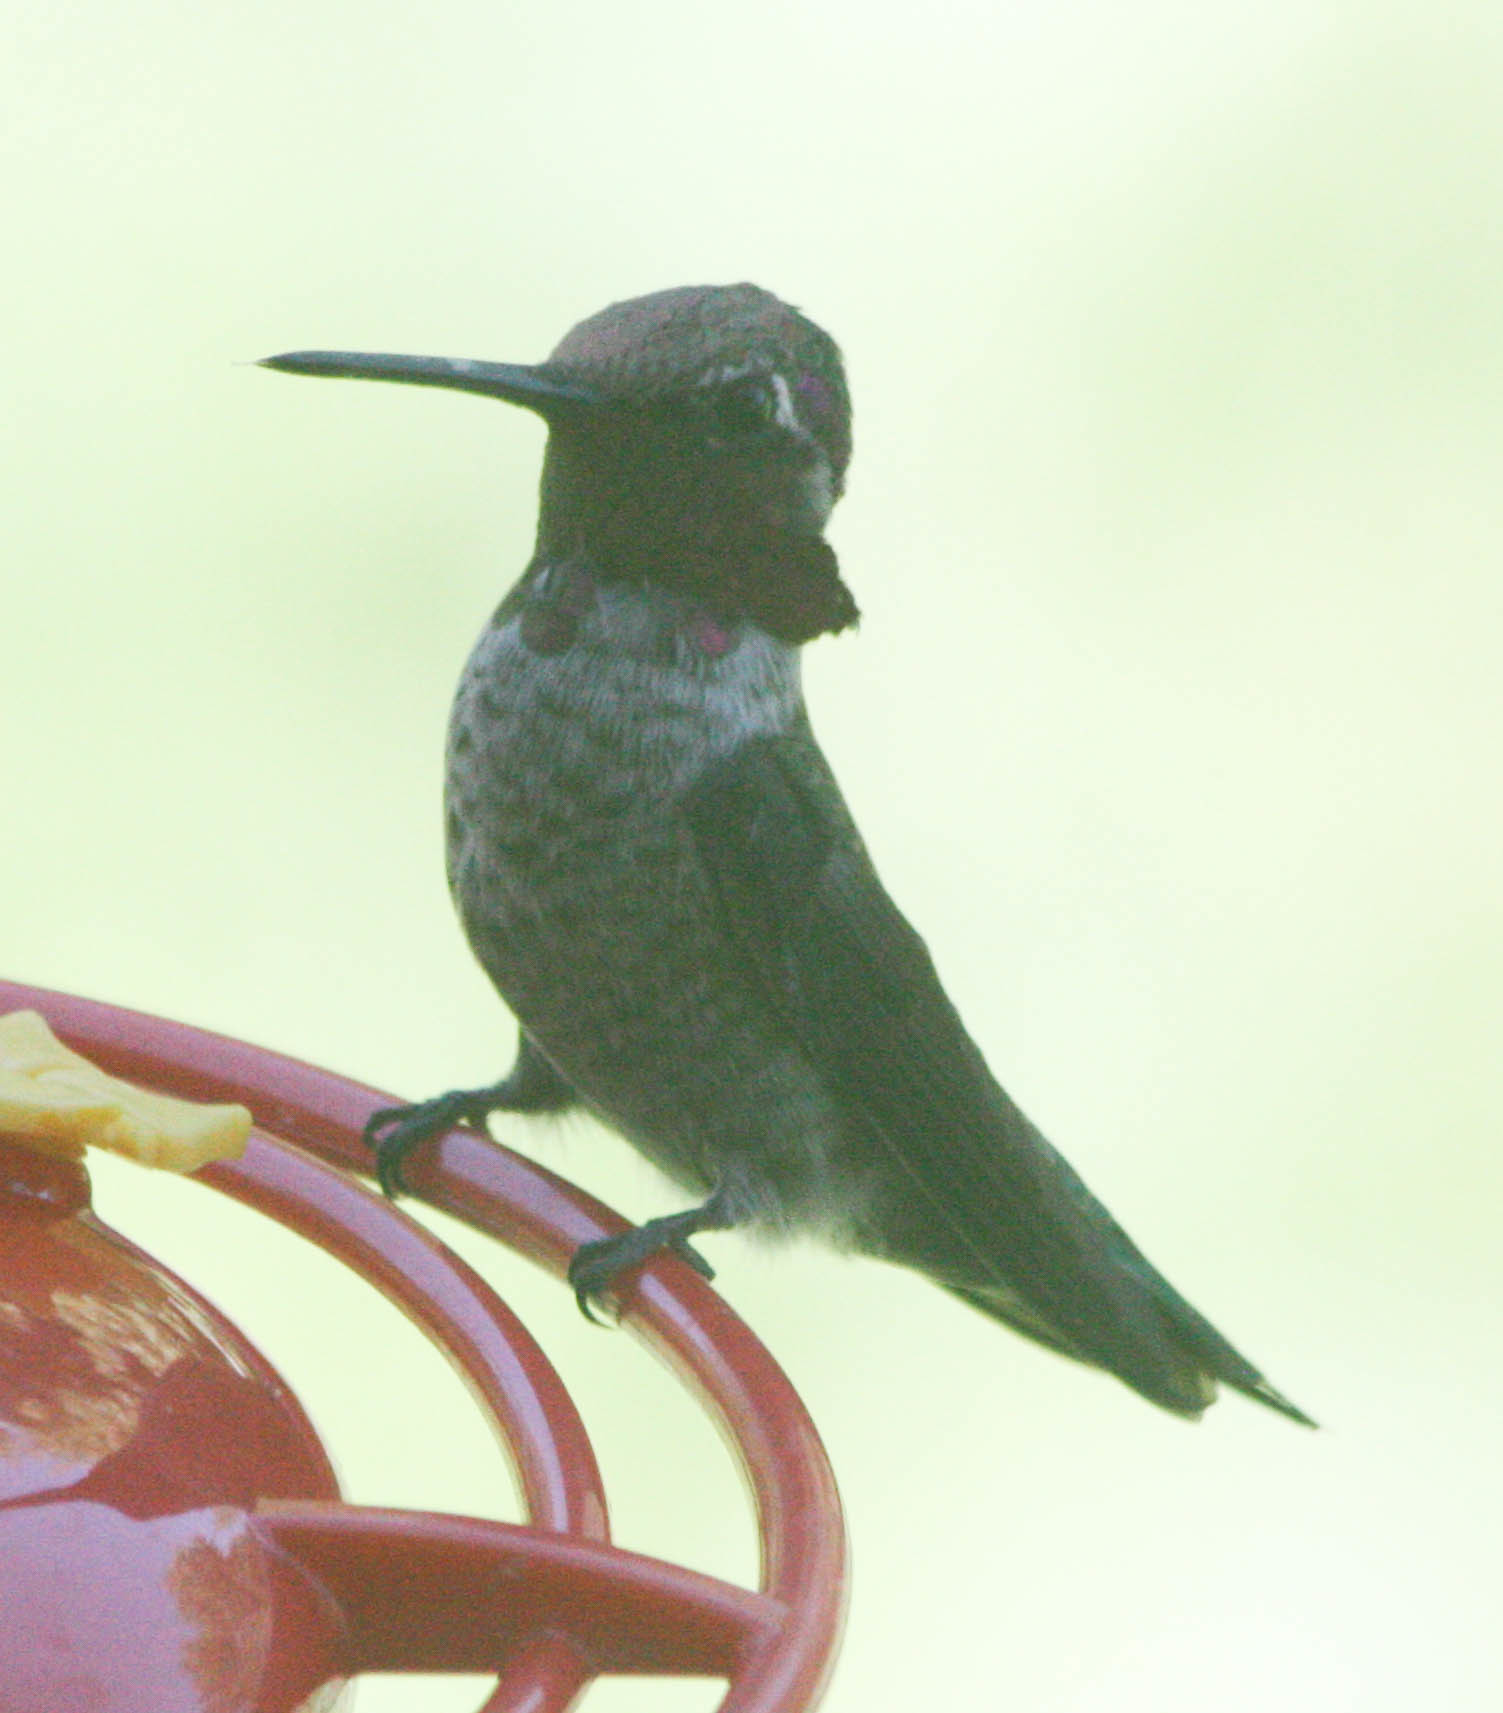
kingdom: Animalia
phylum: Chordata
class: Aves
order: Apodiformes
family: Trochilidae
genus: Calypte
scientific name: Calypte anna
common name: Anna's hummingbird
